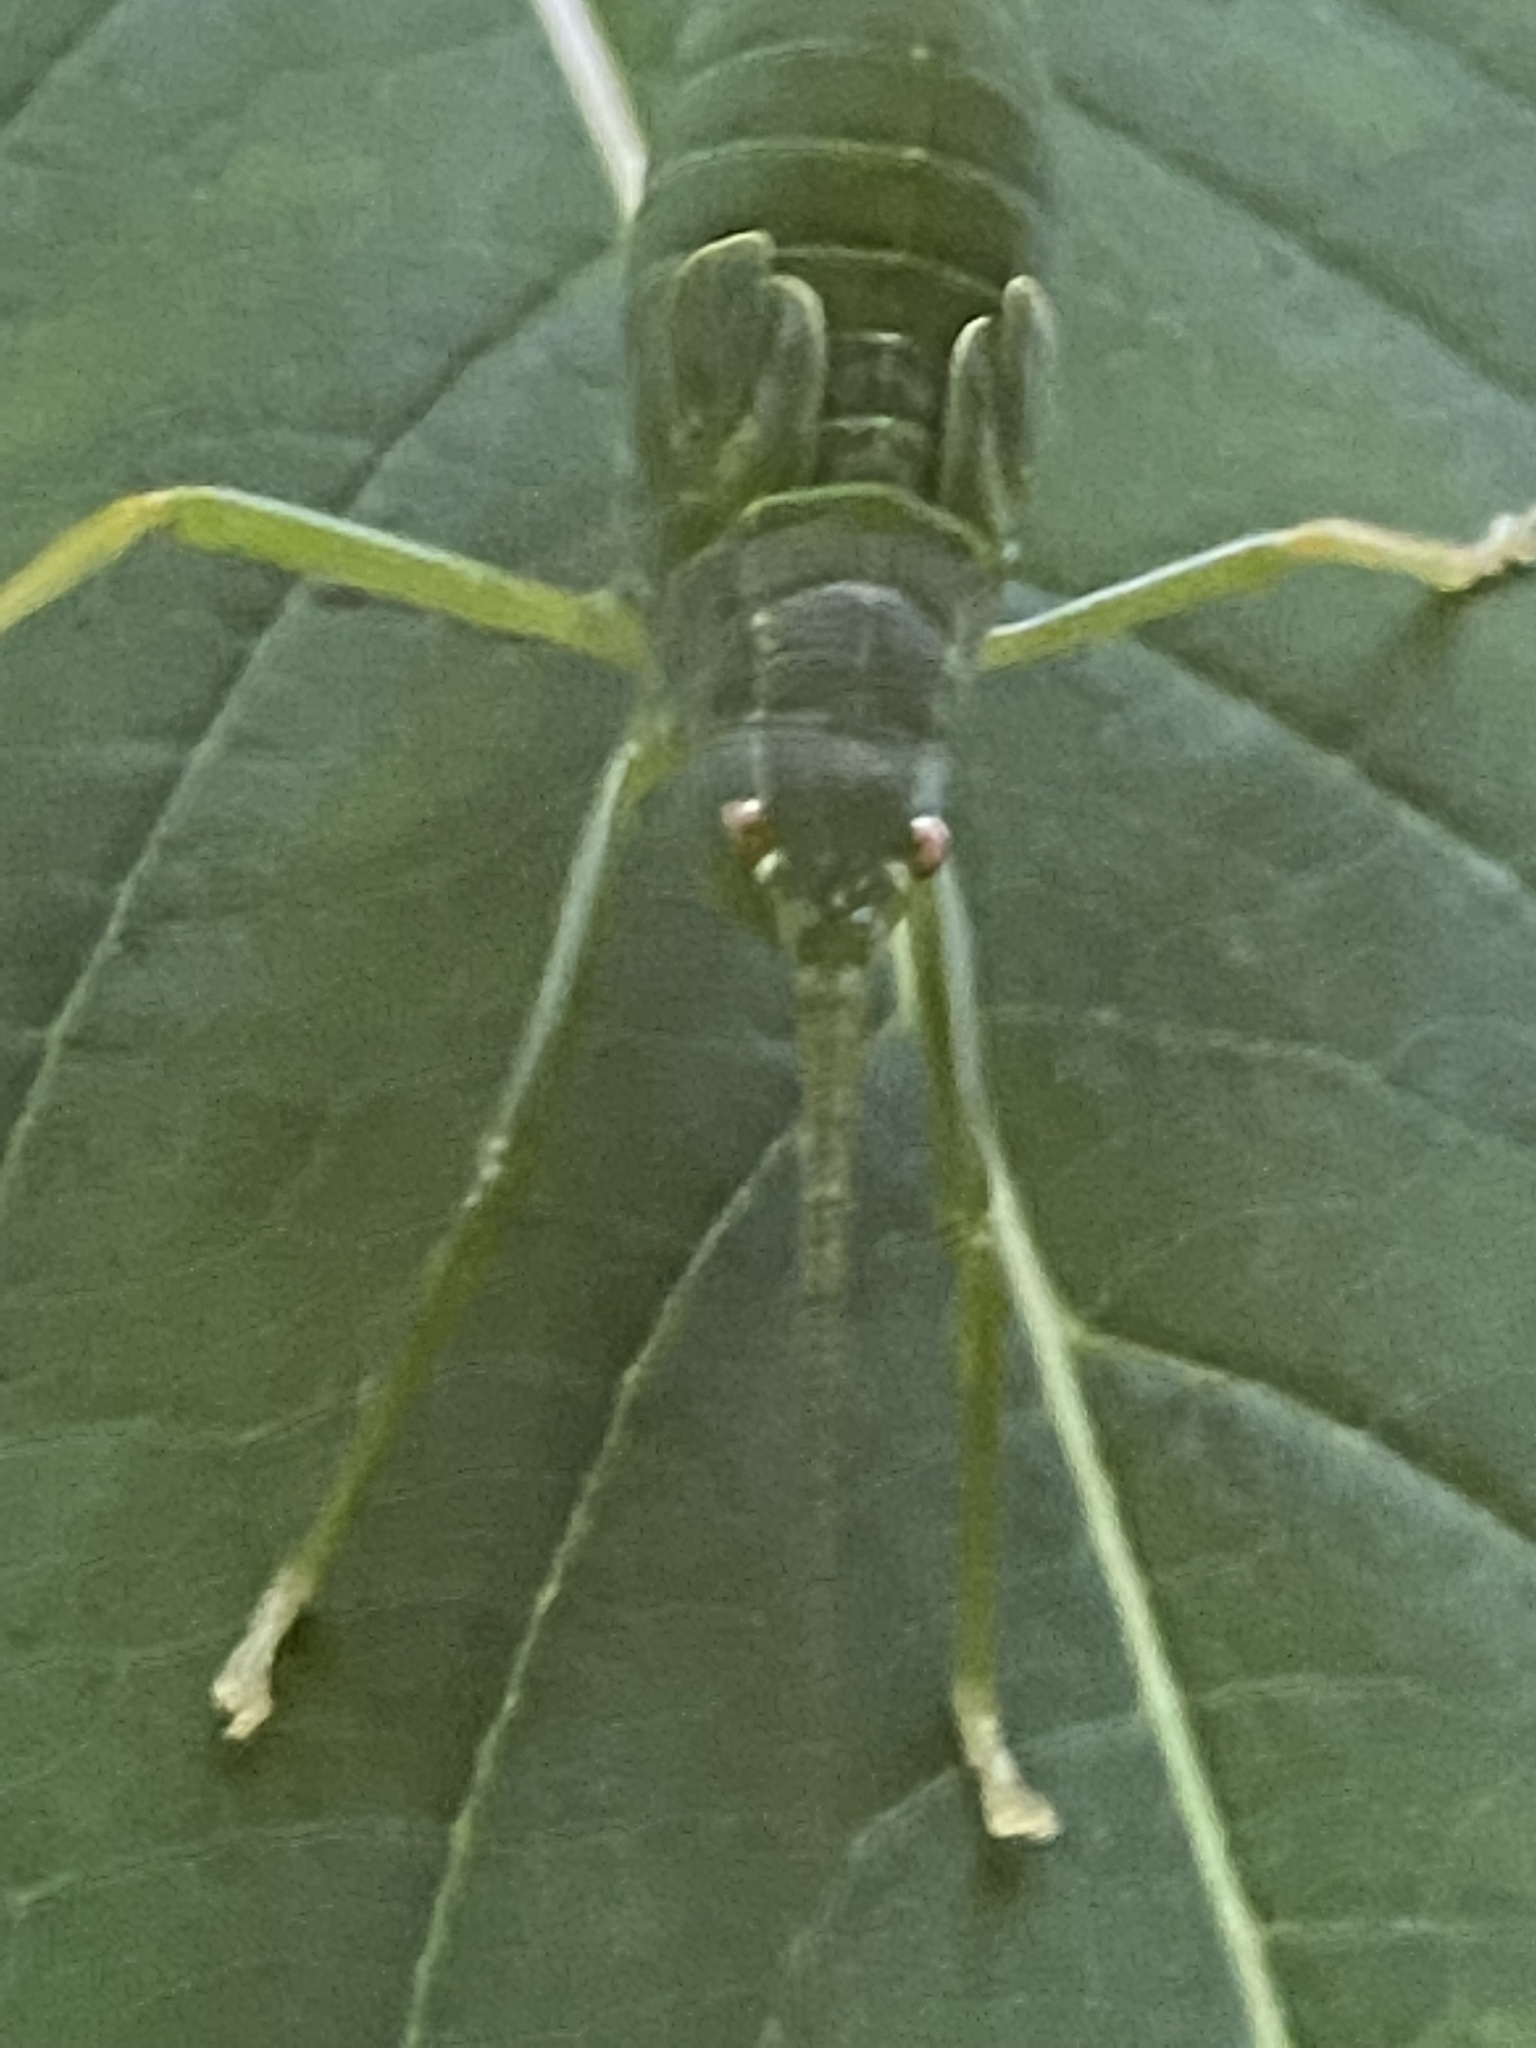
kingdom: Animalia
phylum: Arthropoda
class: Insecta
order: Orthoptera
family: Tettigoniidae
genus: Pterophylla
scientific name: Pterophylla camellifolia
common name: Common true katydid
